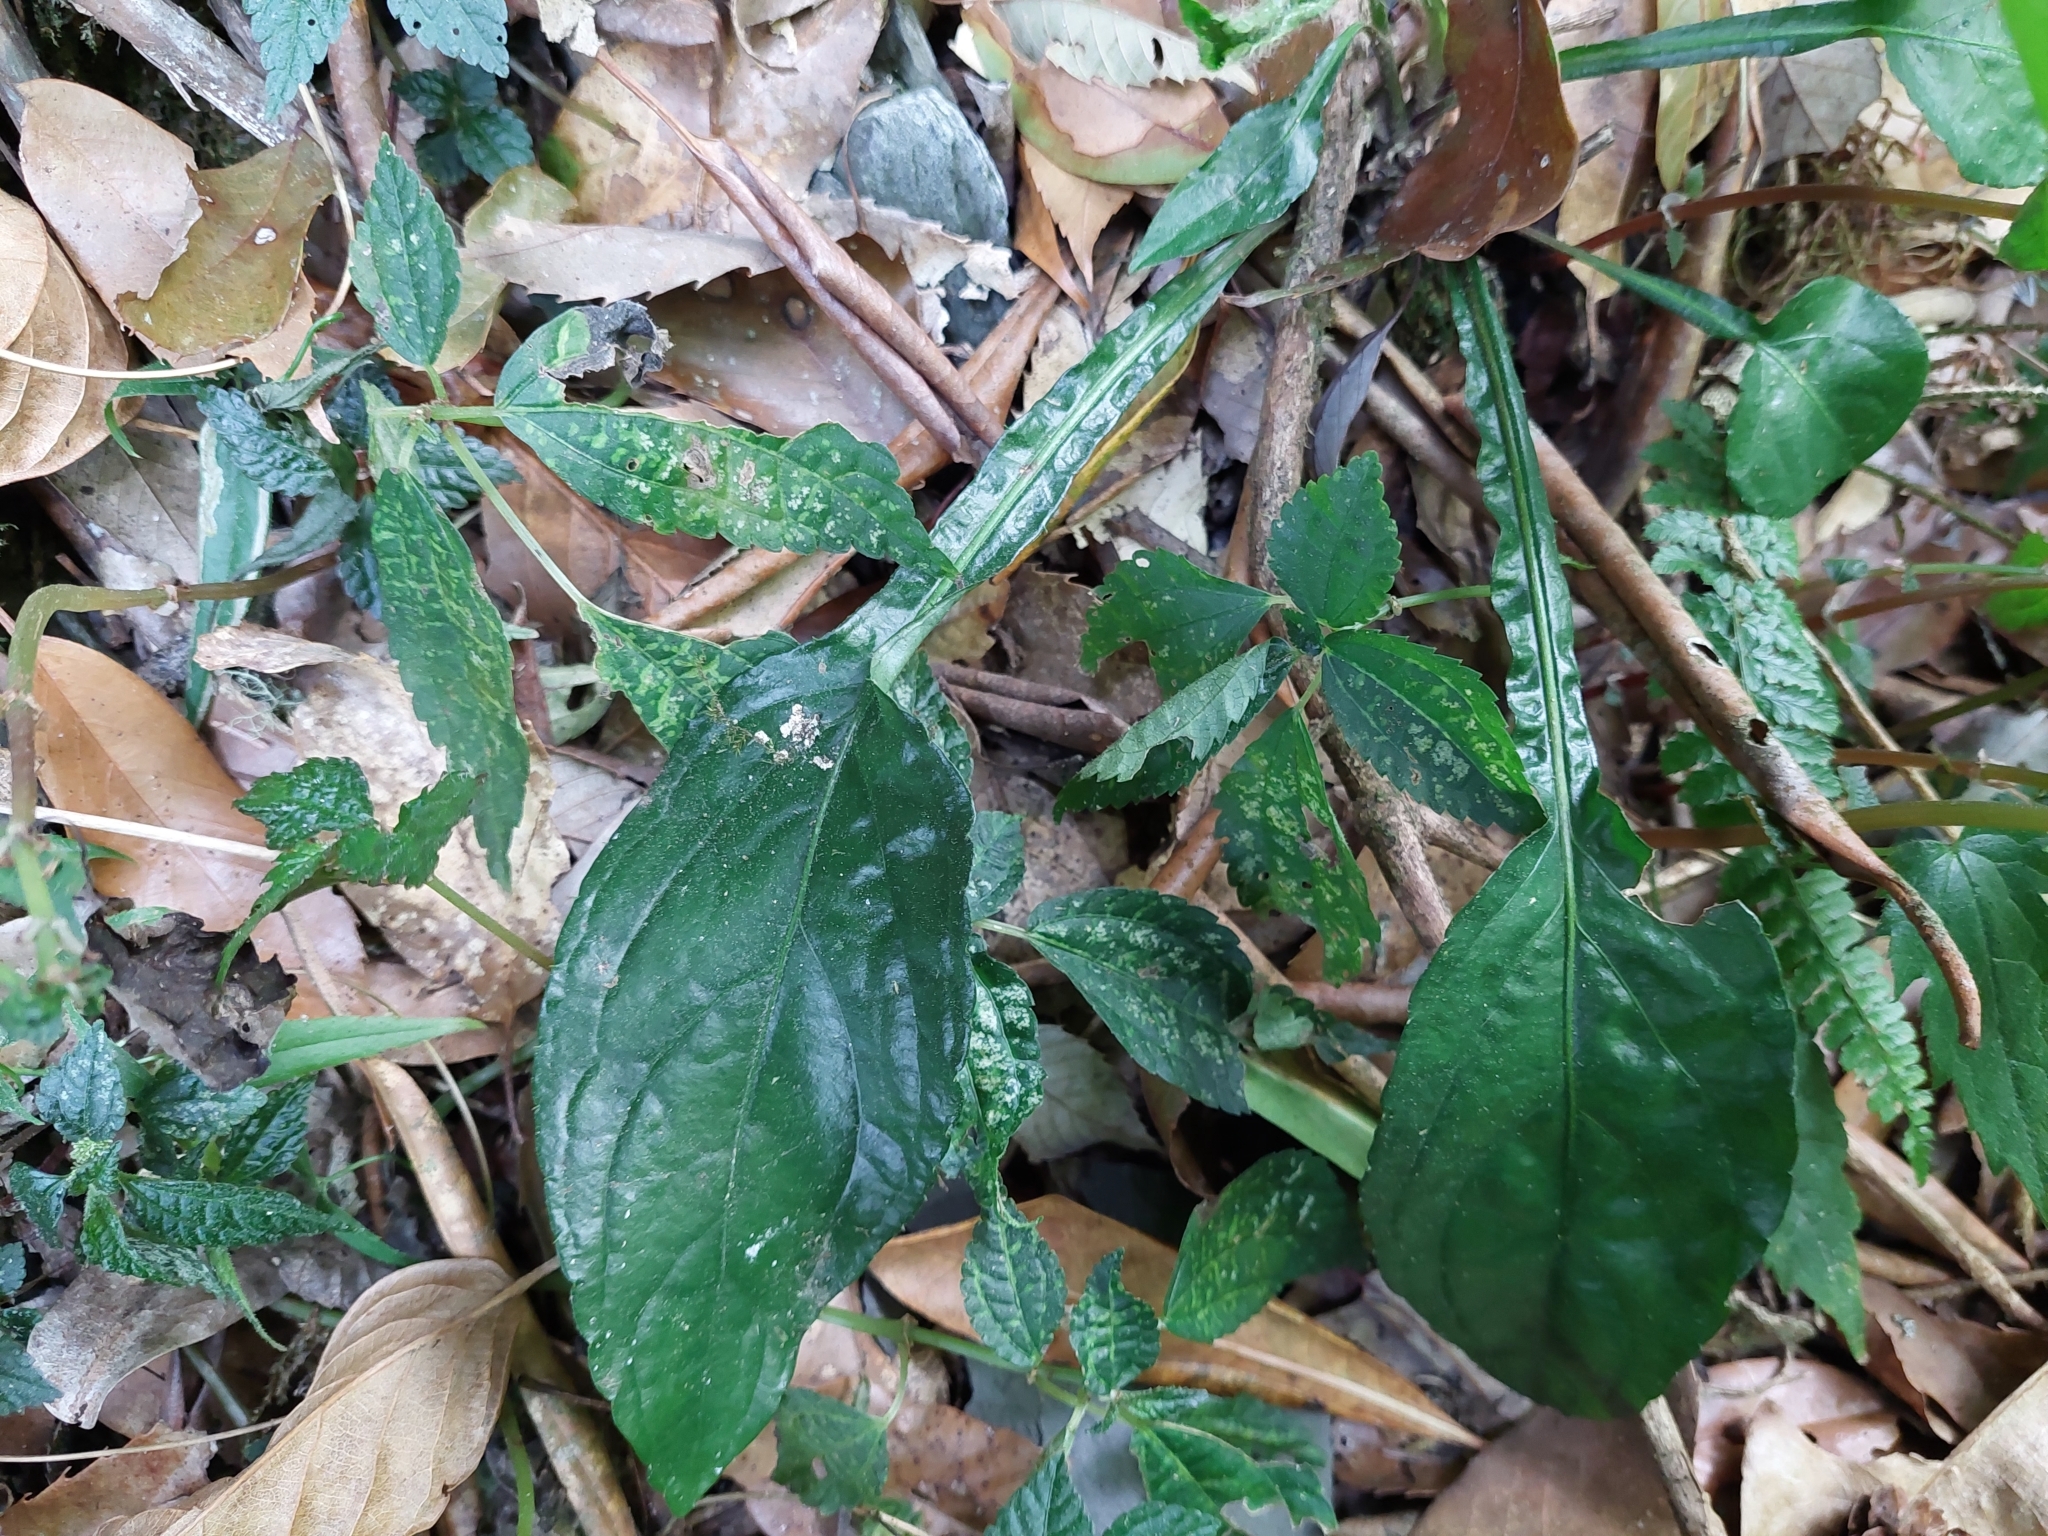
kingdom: Plantae
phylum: Tracheophyta
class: Magnoliopsida
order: Asterales
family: Asteraceae
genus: Ainsliaea
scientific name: Ainsliaea latifolia
